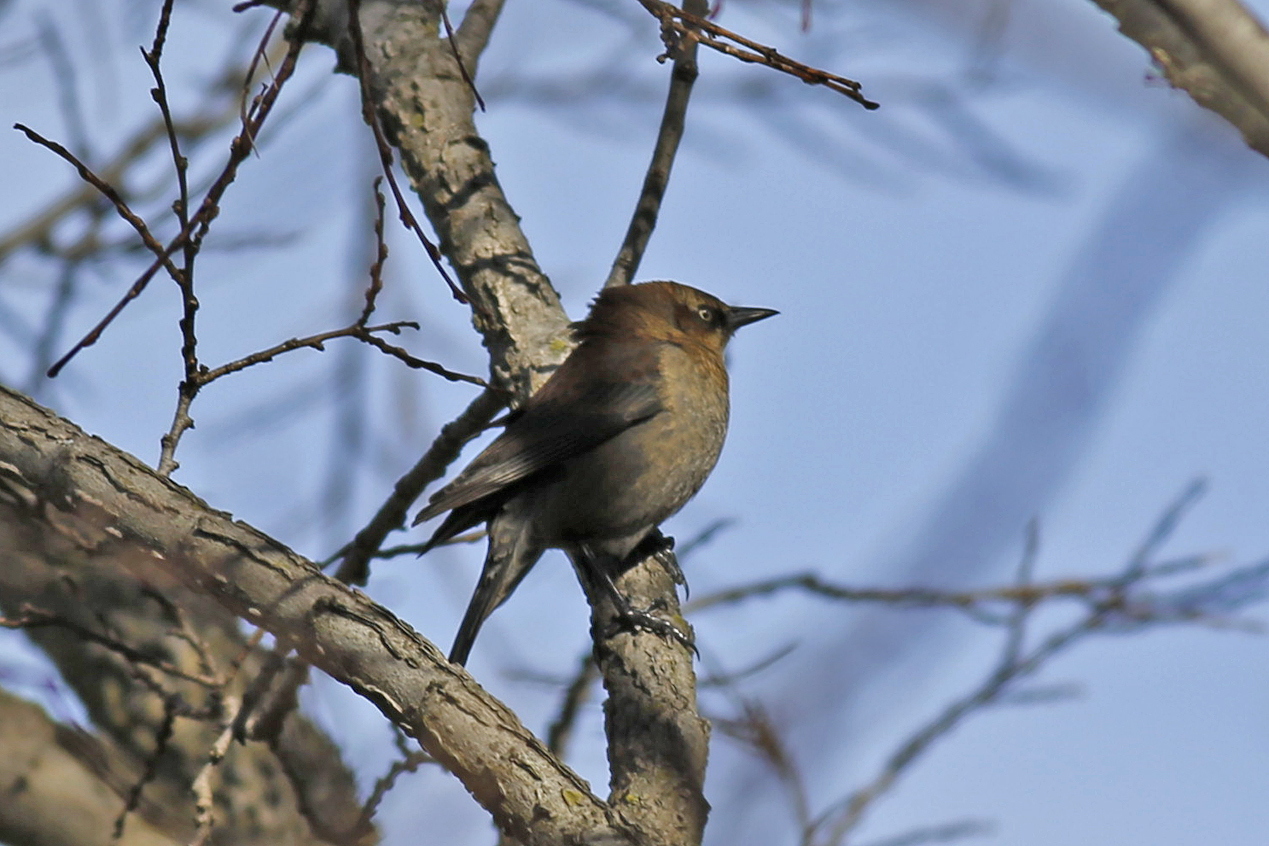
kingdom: Animalia
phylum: Chordata
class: Aves
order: Passeriformes
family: Icteridae
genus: Euphagus
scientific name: Euphagus carolinus
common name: Rusty blackbird
